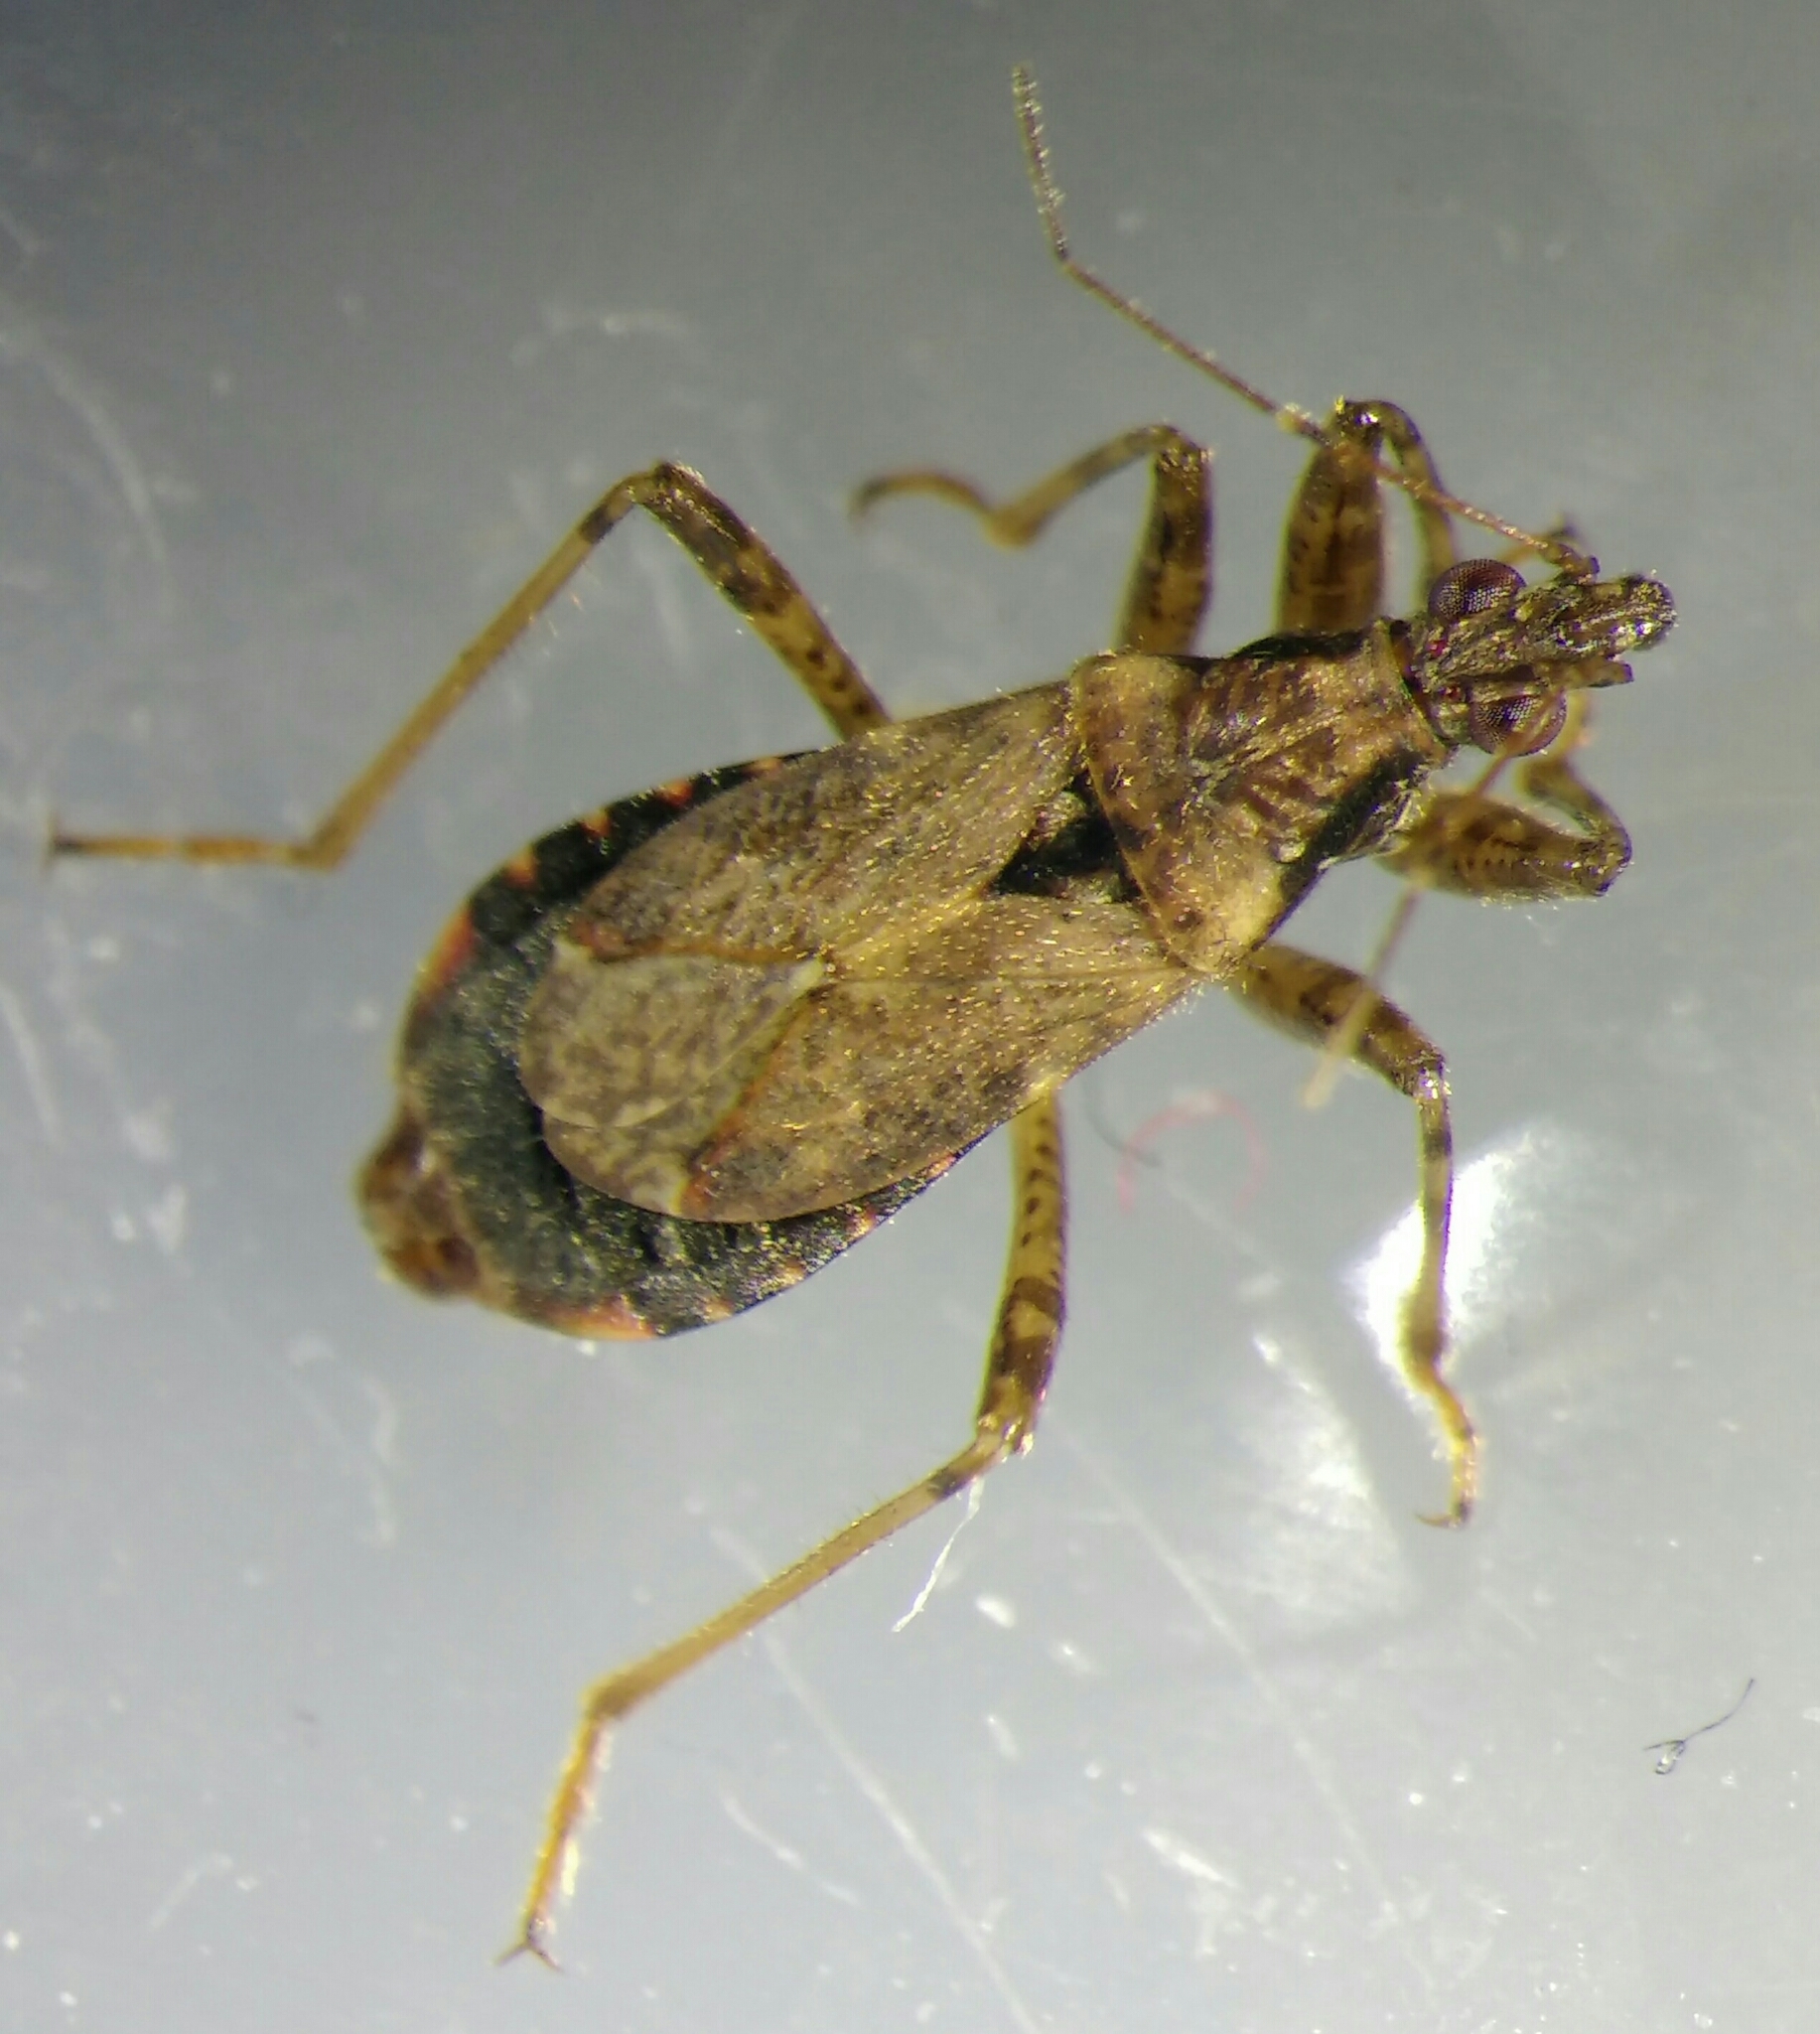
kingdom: Animalia
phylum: Arthropoda
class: Insecta
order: Hemiptera
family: Nabidae
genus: Himacerus
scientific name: Himacerus mirmicoides
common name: Ant damsel bug
